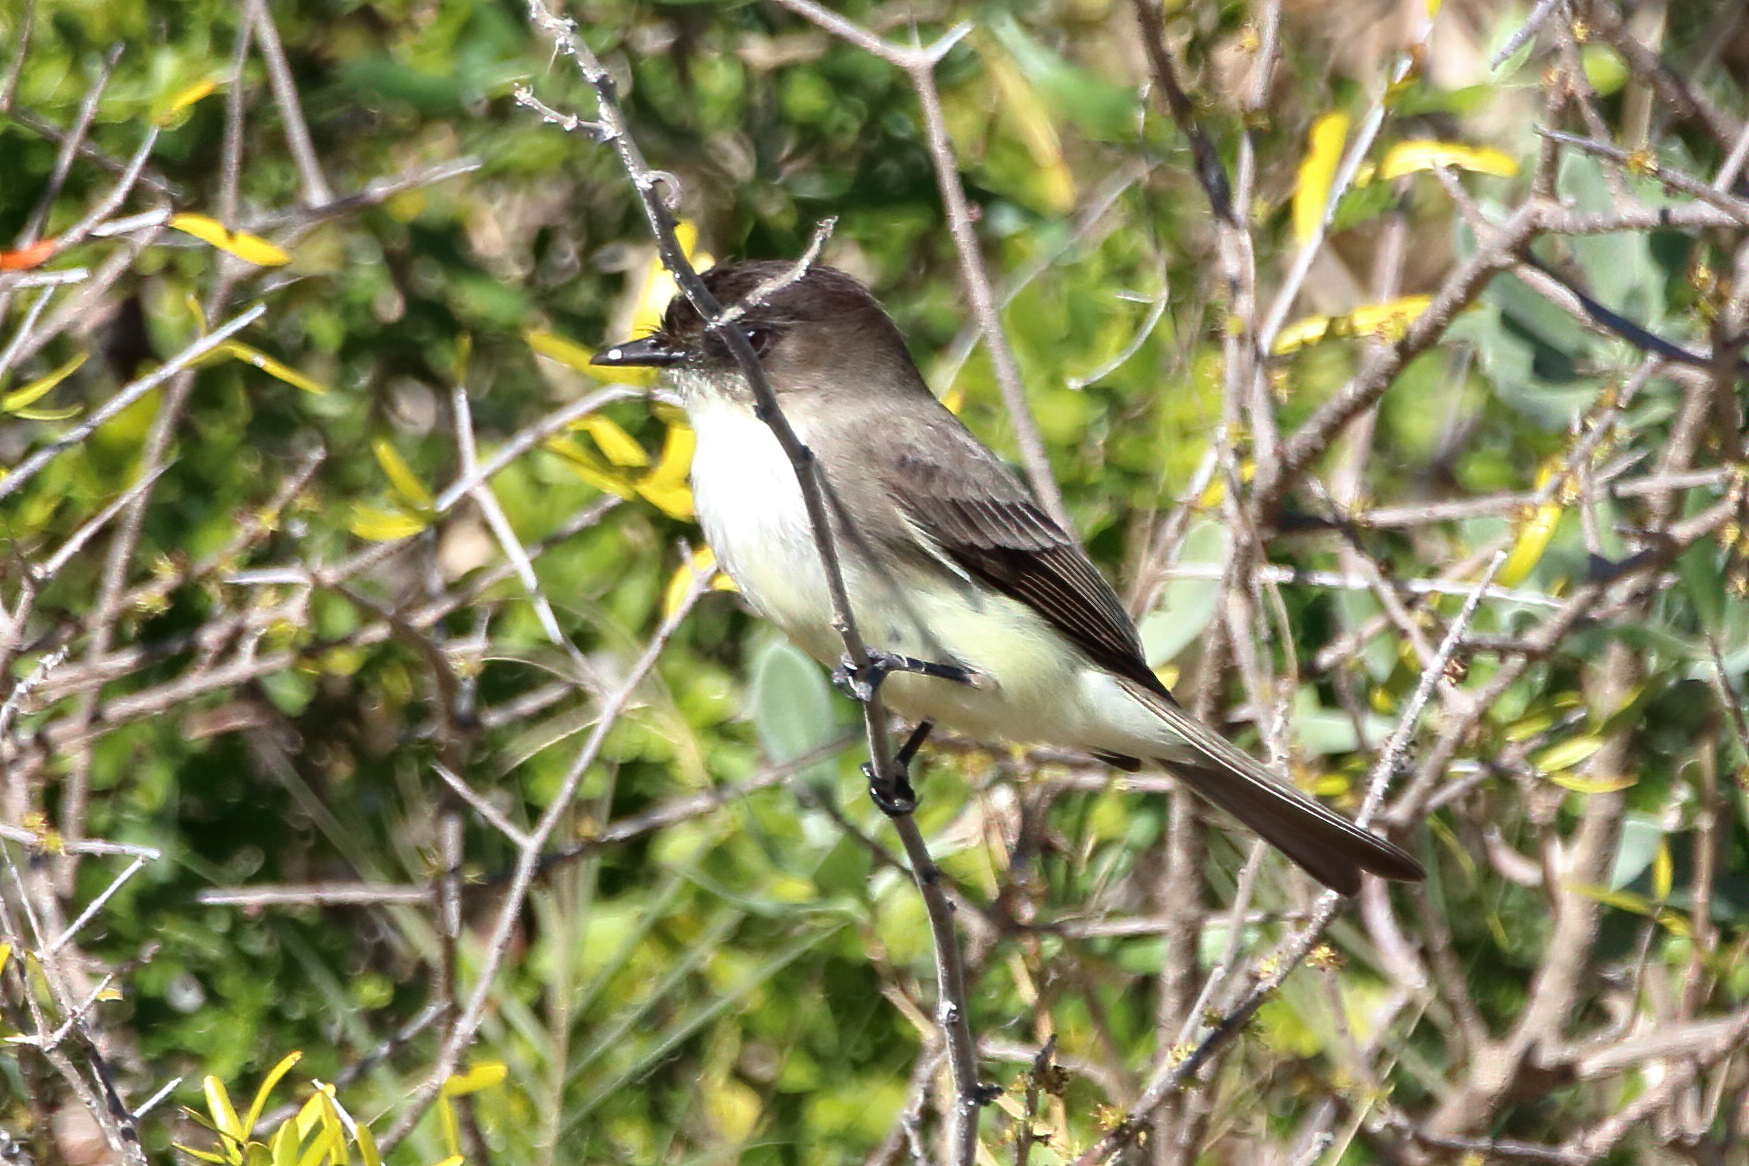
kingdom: Animalia
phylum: Chordata
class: Aves
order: Passeriformes
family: Tyrannidae
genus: Sayornis
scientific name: Sayornis phoebe
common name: Eastern phoebe
